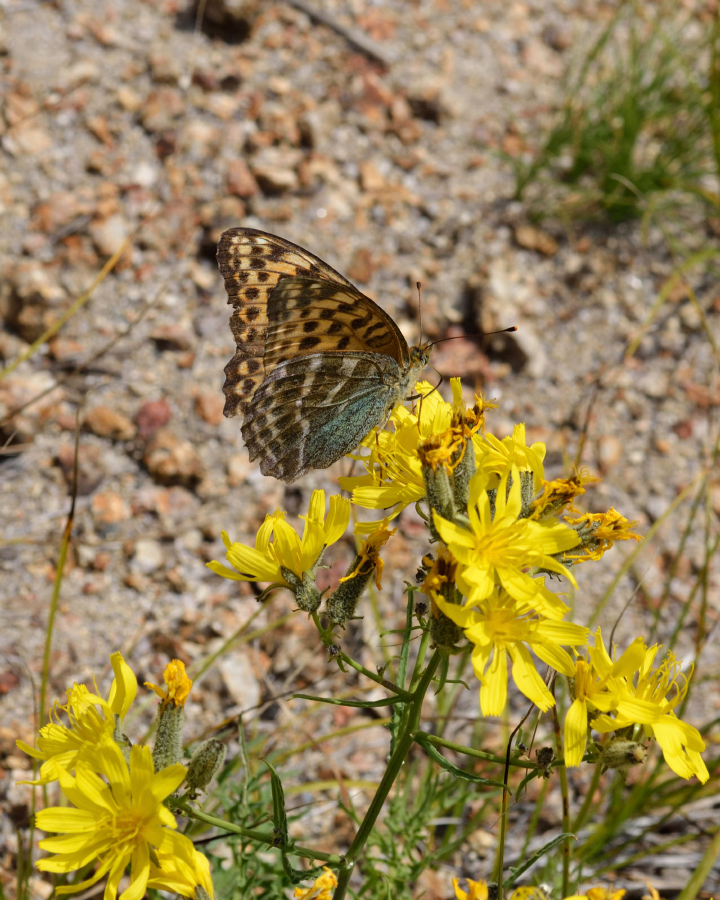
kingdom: Animalia
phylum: Arthropoda
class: Insecta
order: Lepidoptera
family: Nymphalidae
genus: Argynnis
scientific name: Argynnis paphia
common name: Silver-washed fritillary
